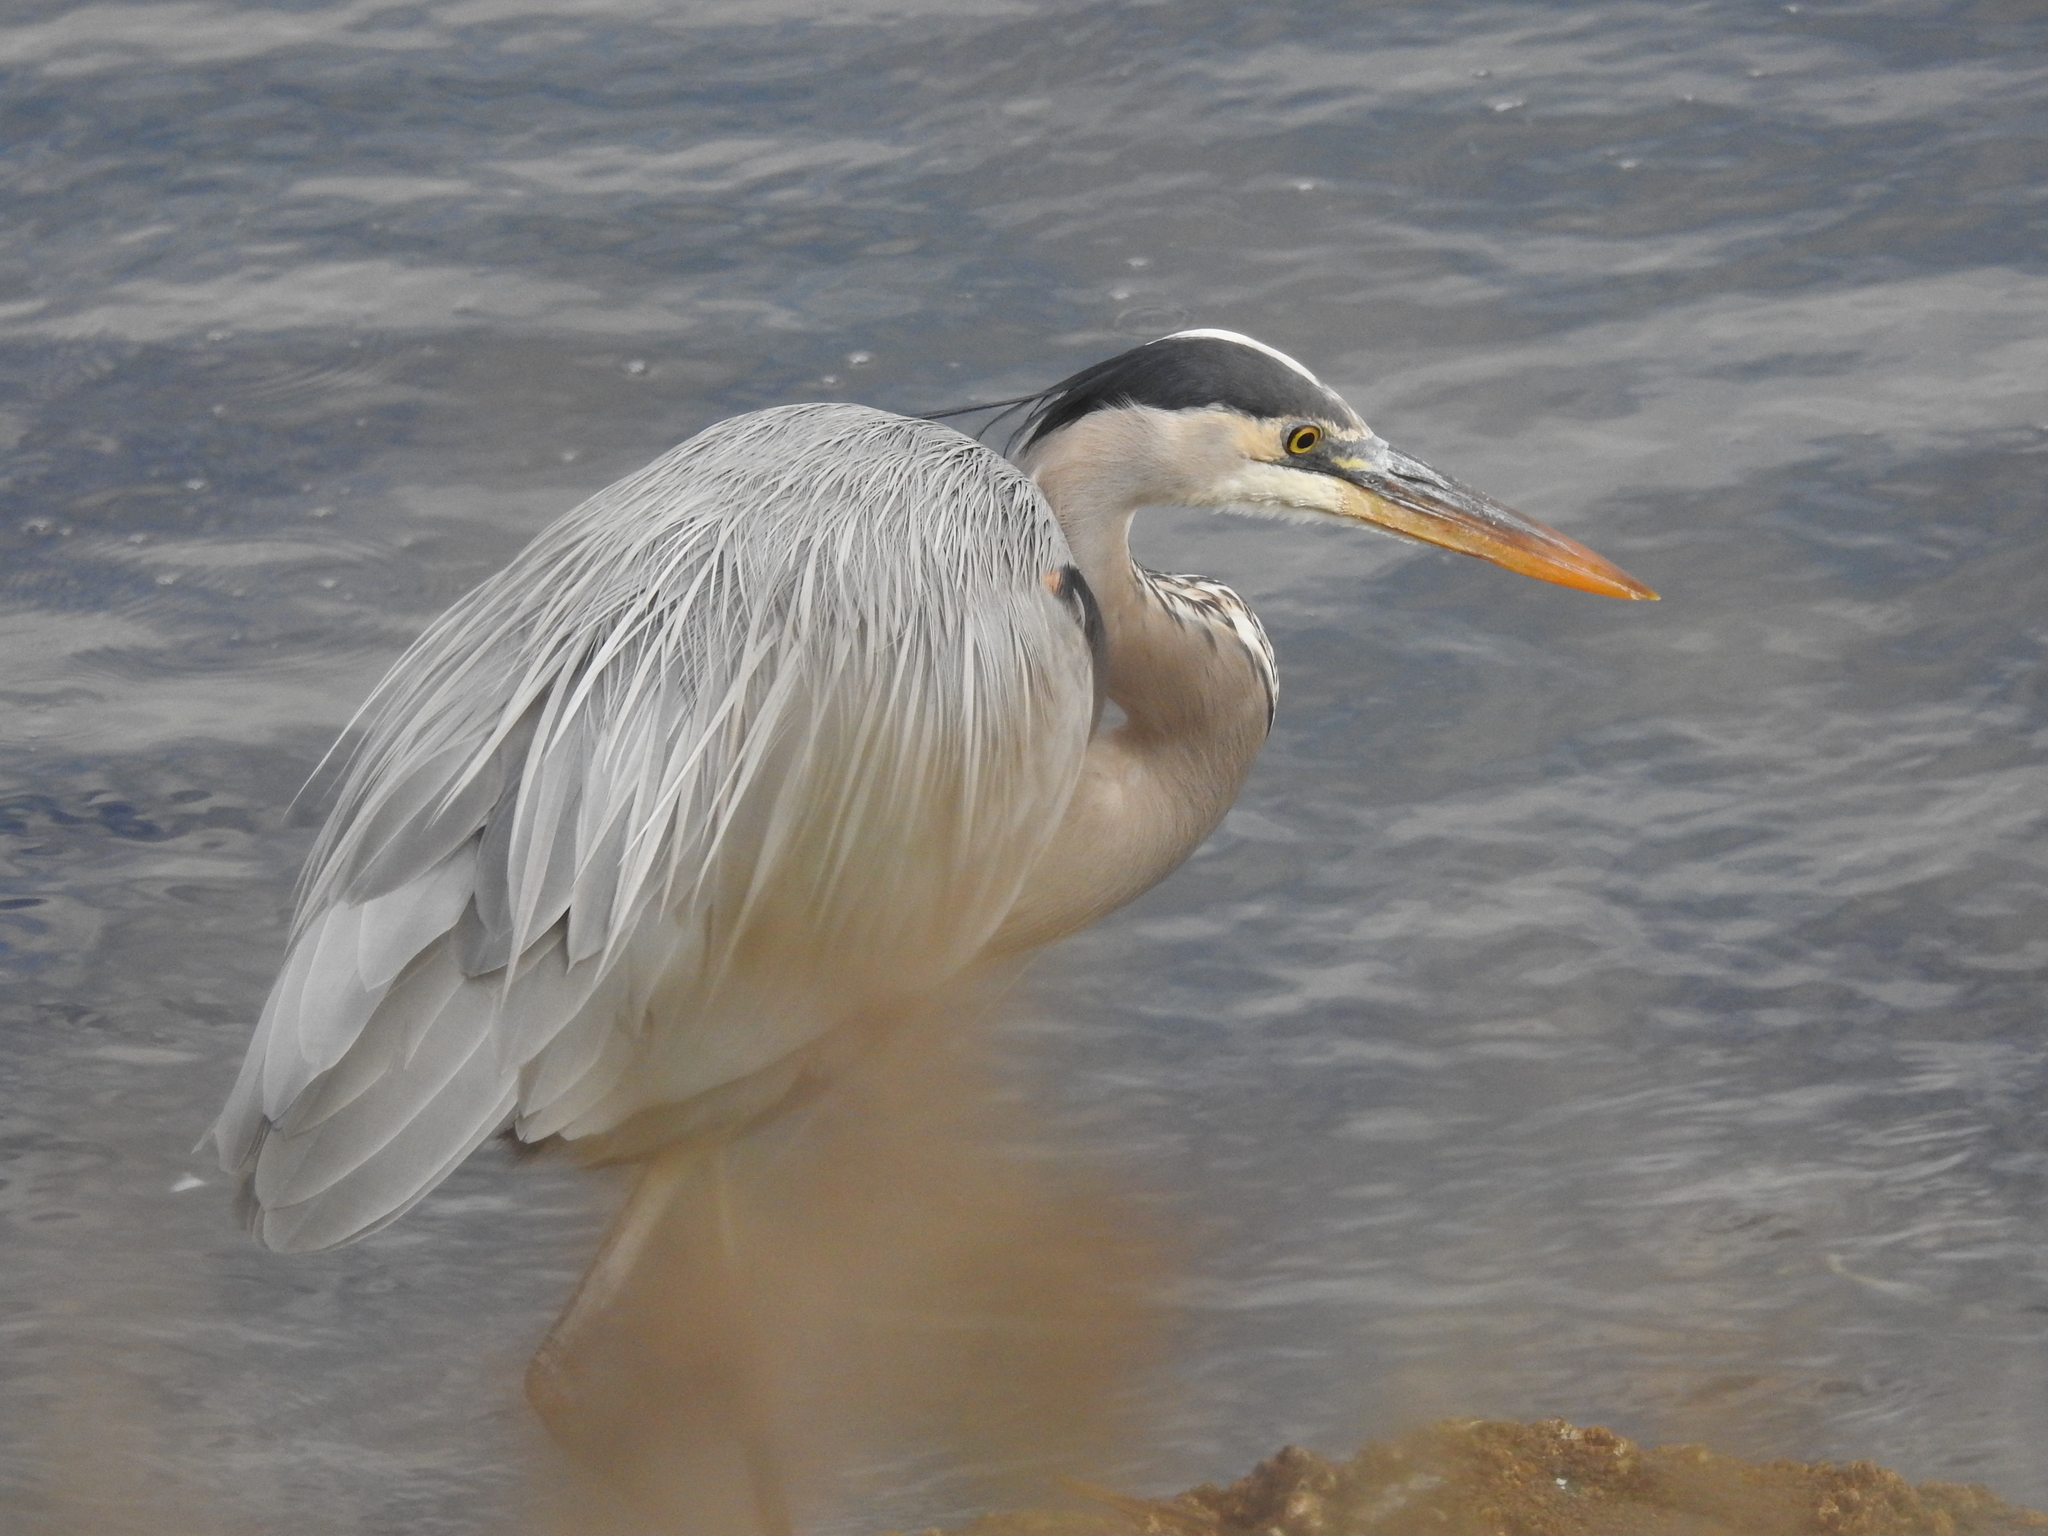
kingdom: Animalia
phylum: Chordata
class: Aves
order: Pelecaniformes
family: Ardeidae
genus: Ardea
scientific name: Ardea herodias
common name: Great blue heron
